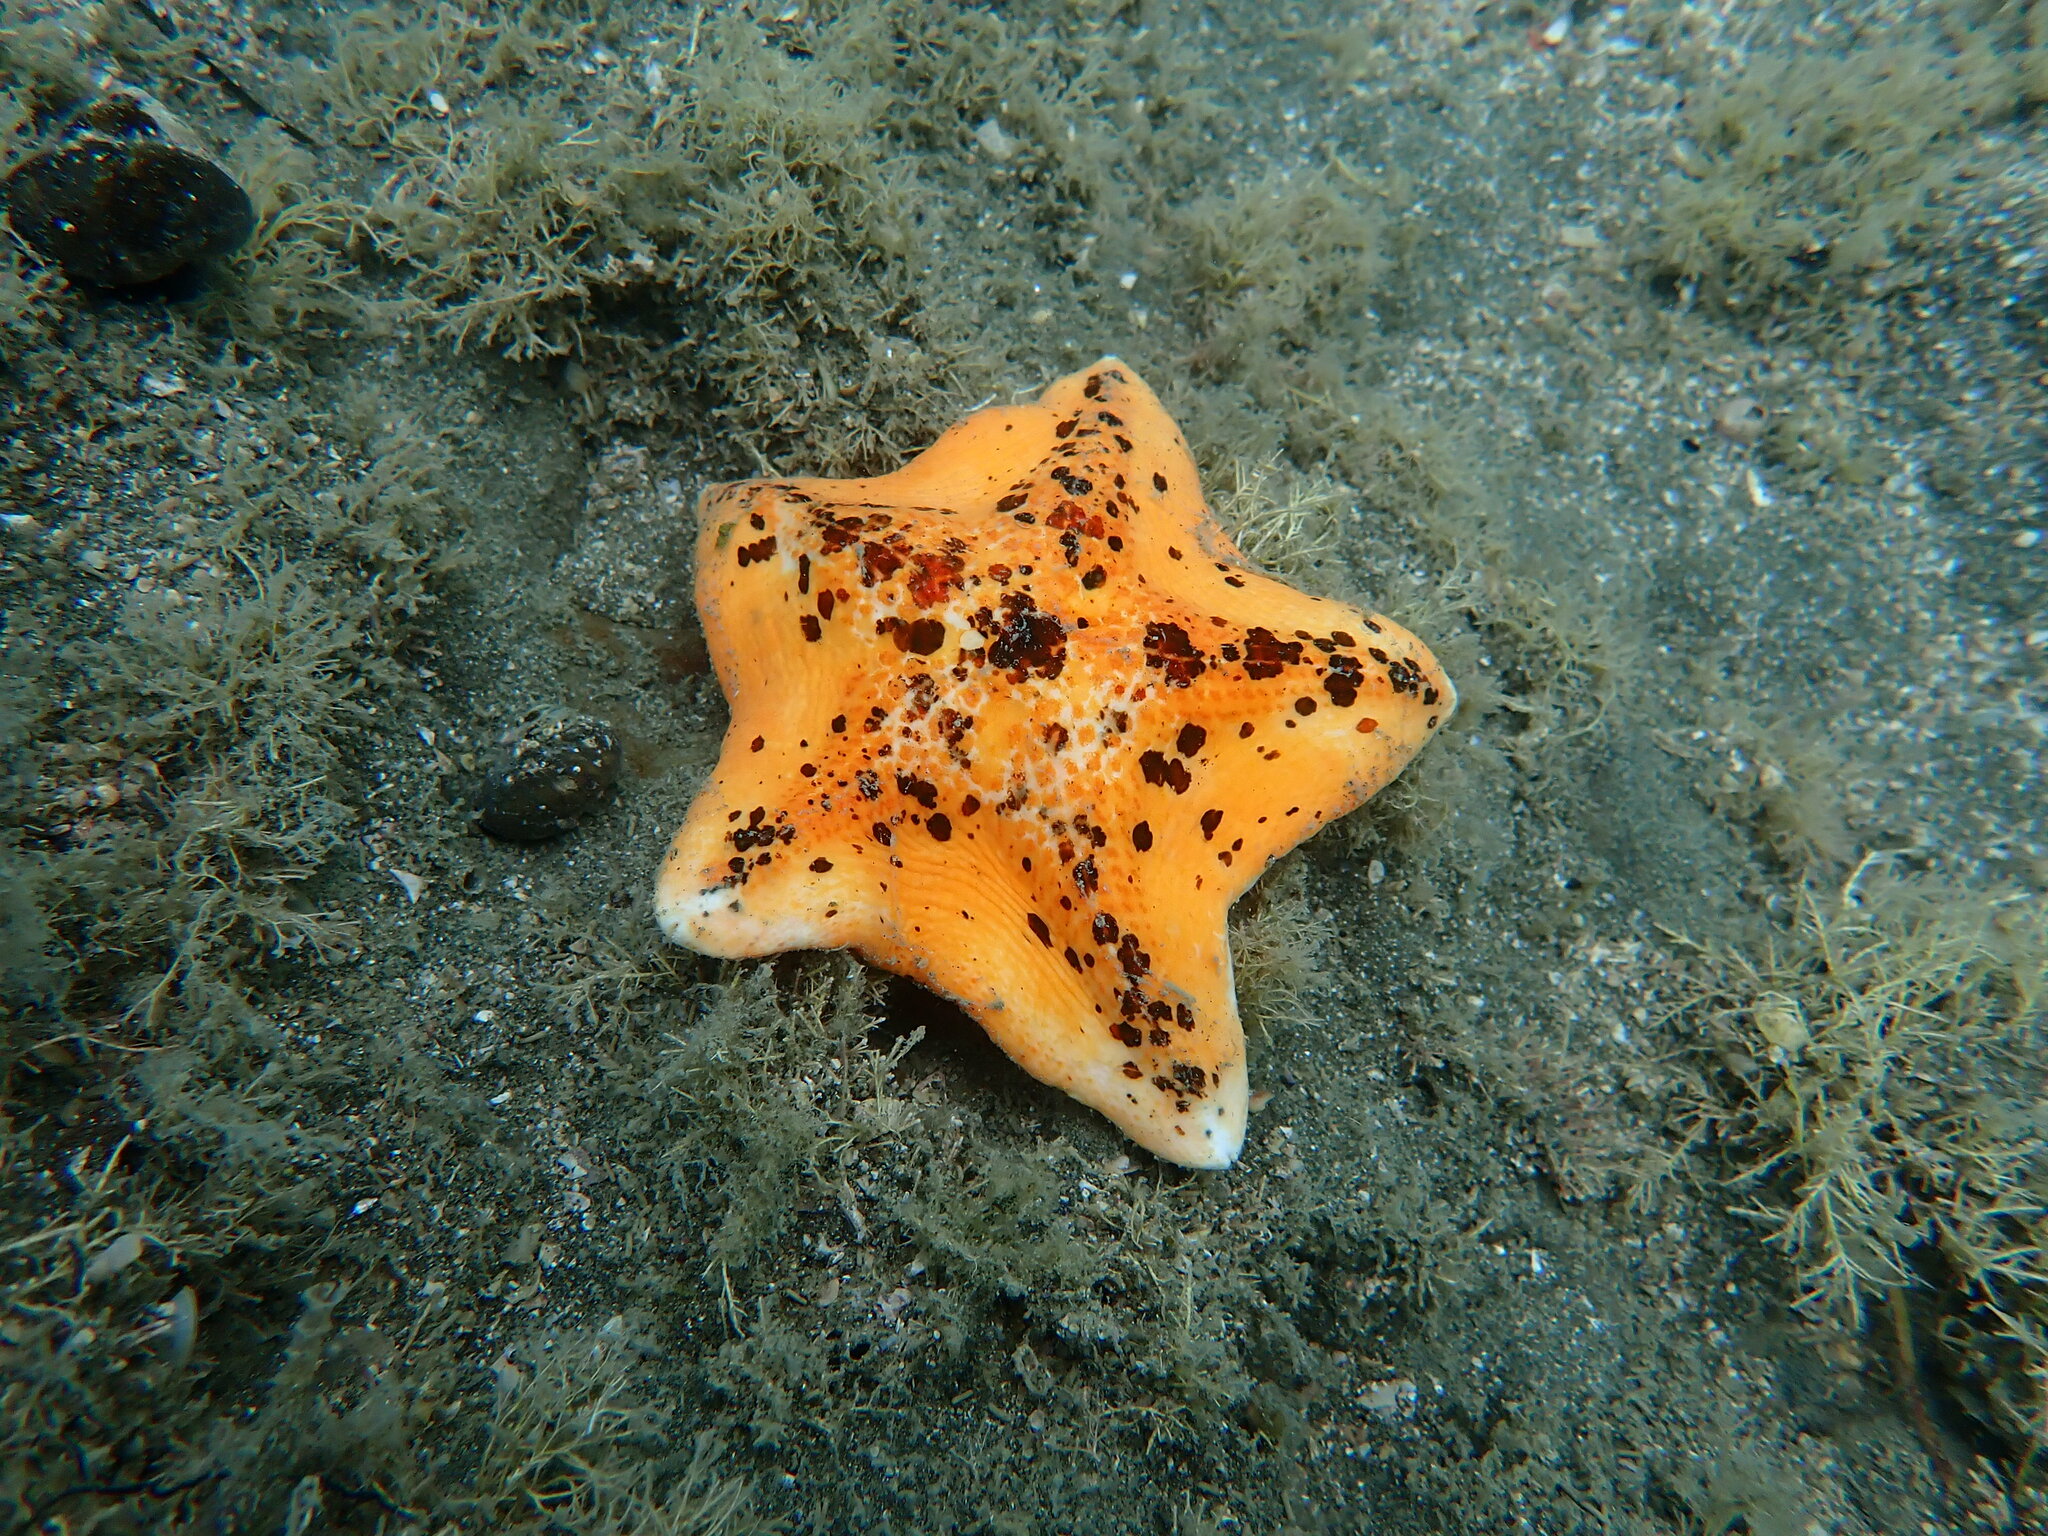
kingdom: Animalia
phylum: Echinodermata
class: Asteroidea
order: Valvatida
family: Asterinidae
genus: Stegnaster
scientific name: Stegnaster inflatus
